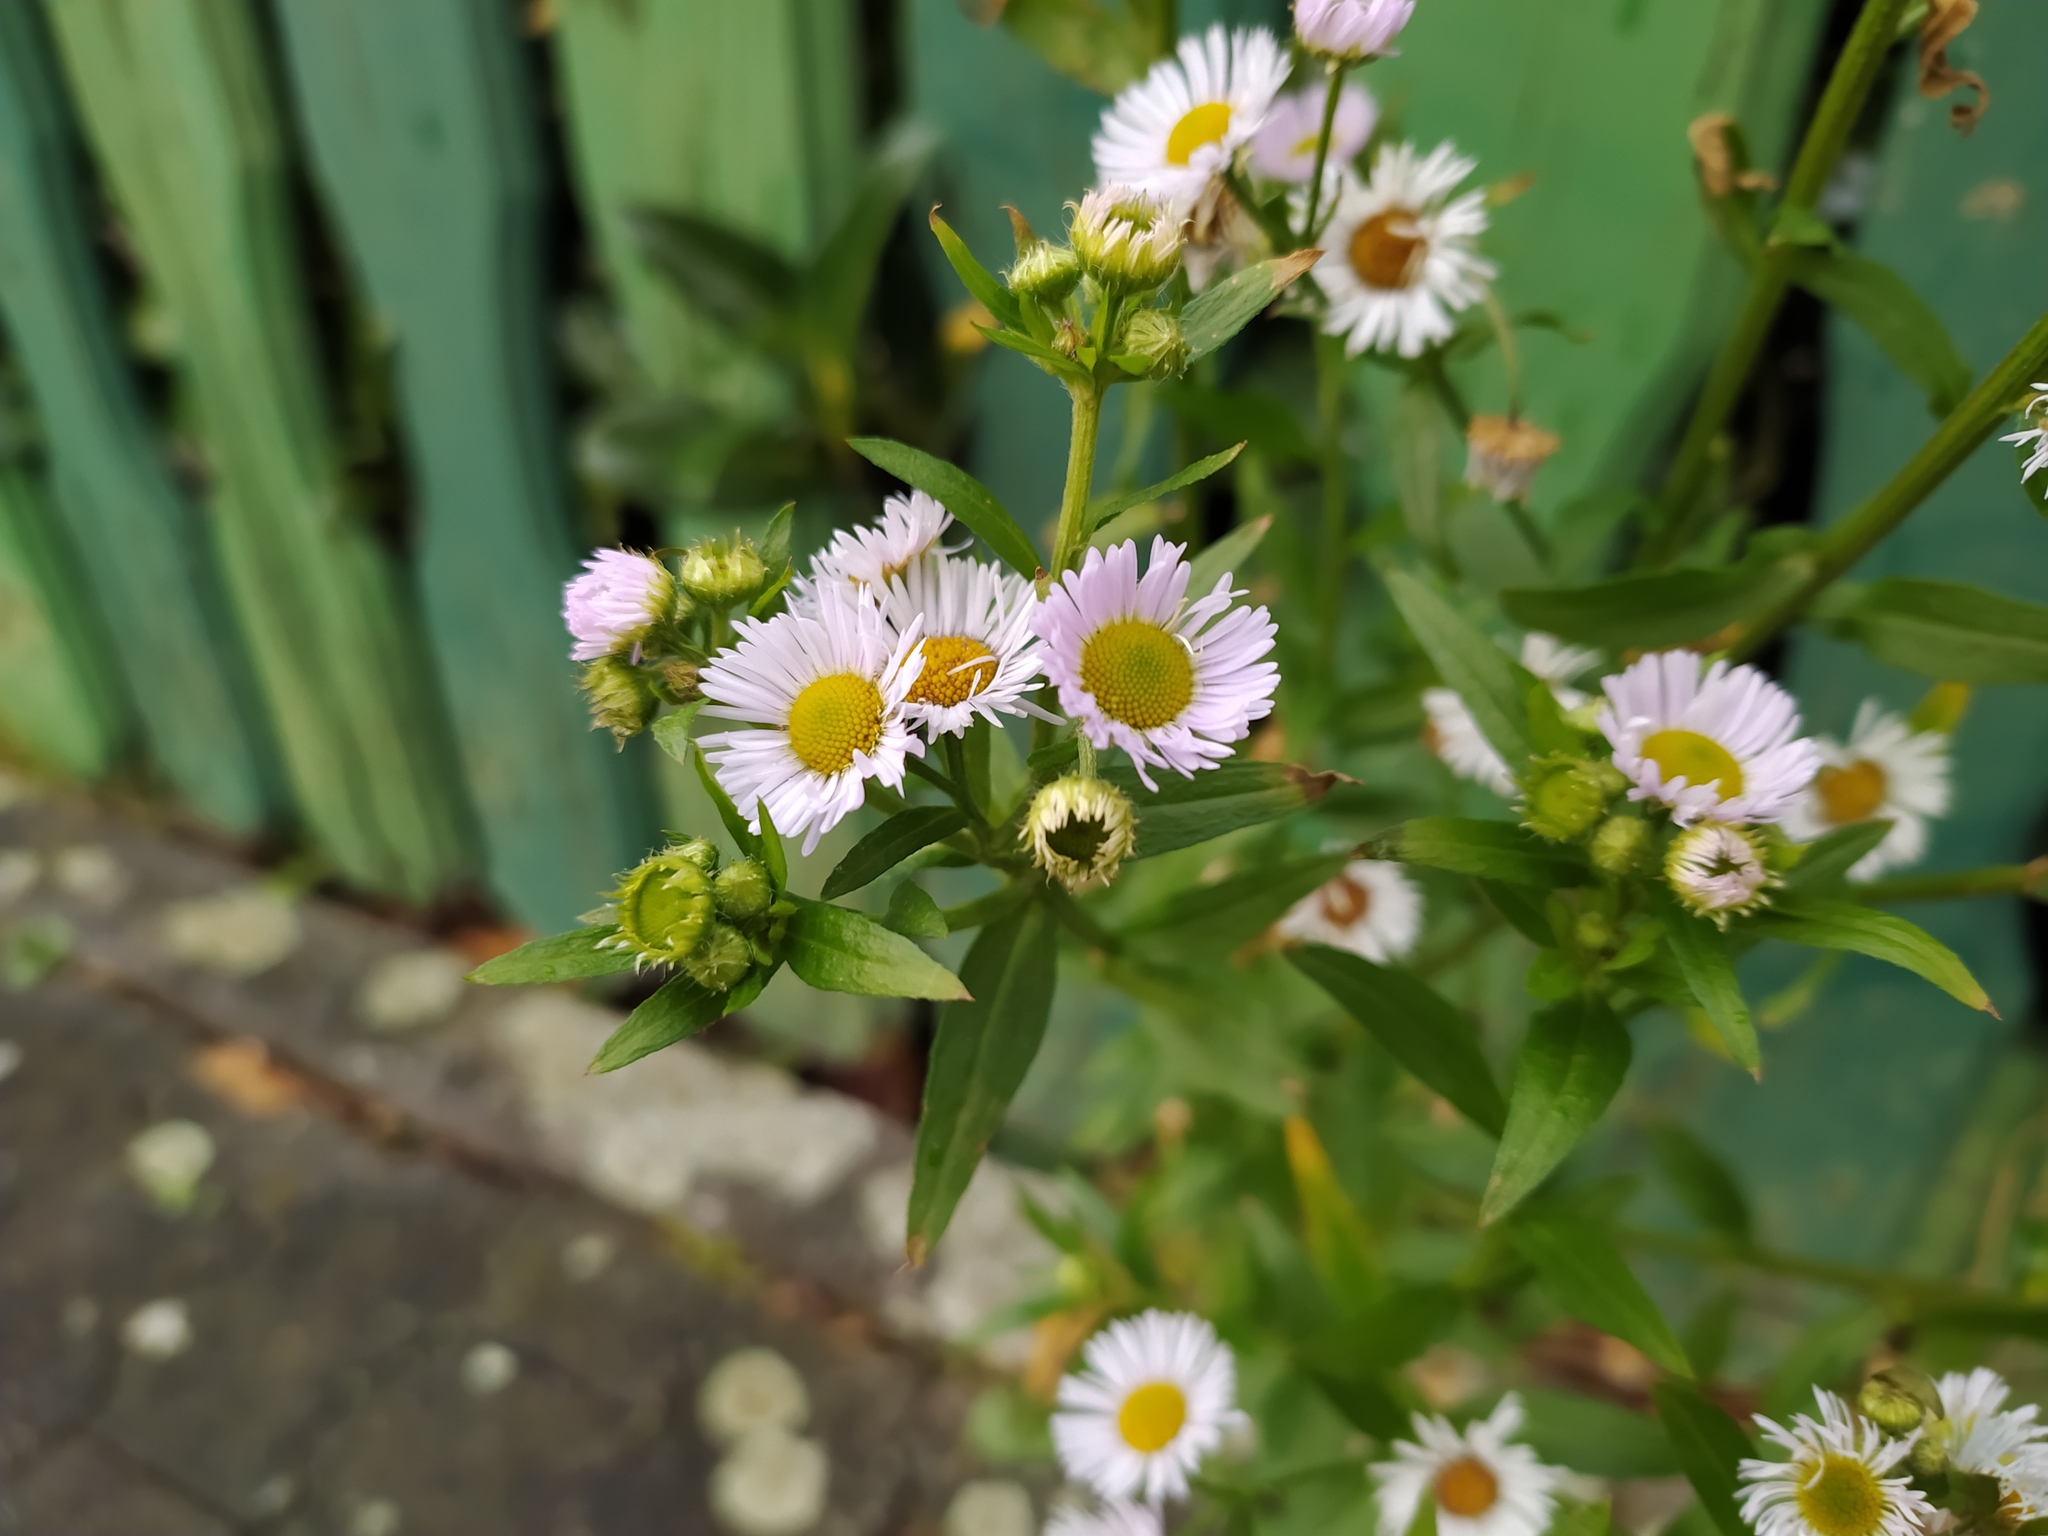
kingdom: Plantae
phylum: Tracheophyta
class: Magnoliopsida
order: Asterales
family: Asteraceae
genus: Erigeron
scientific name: Erigeron annuus
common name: Tall fleabane
